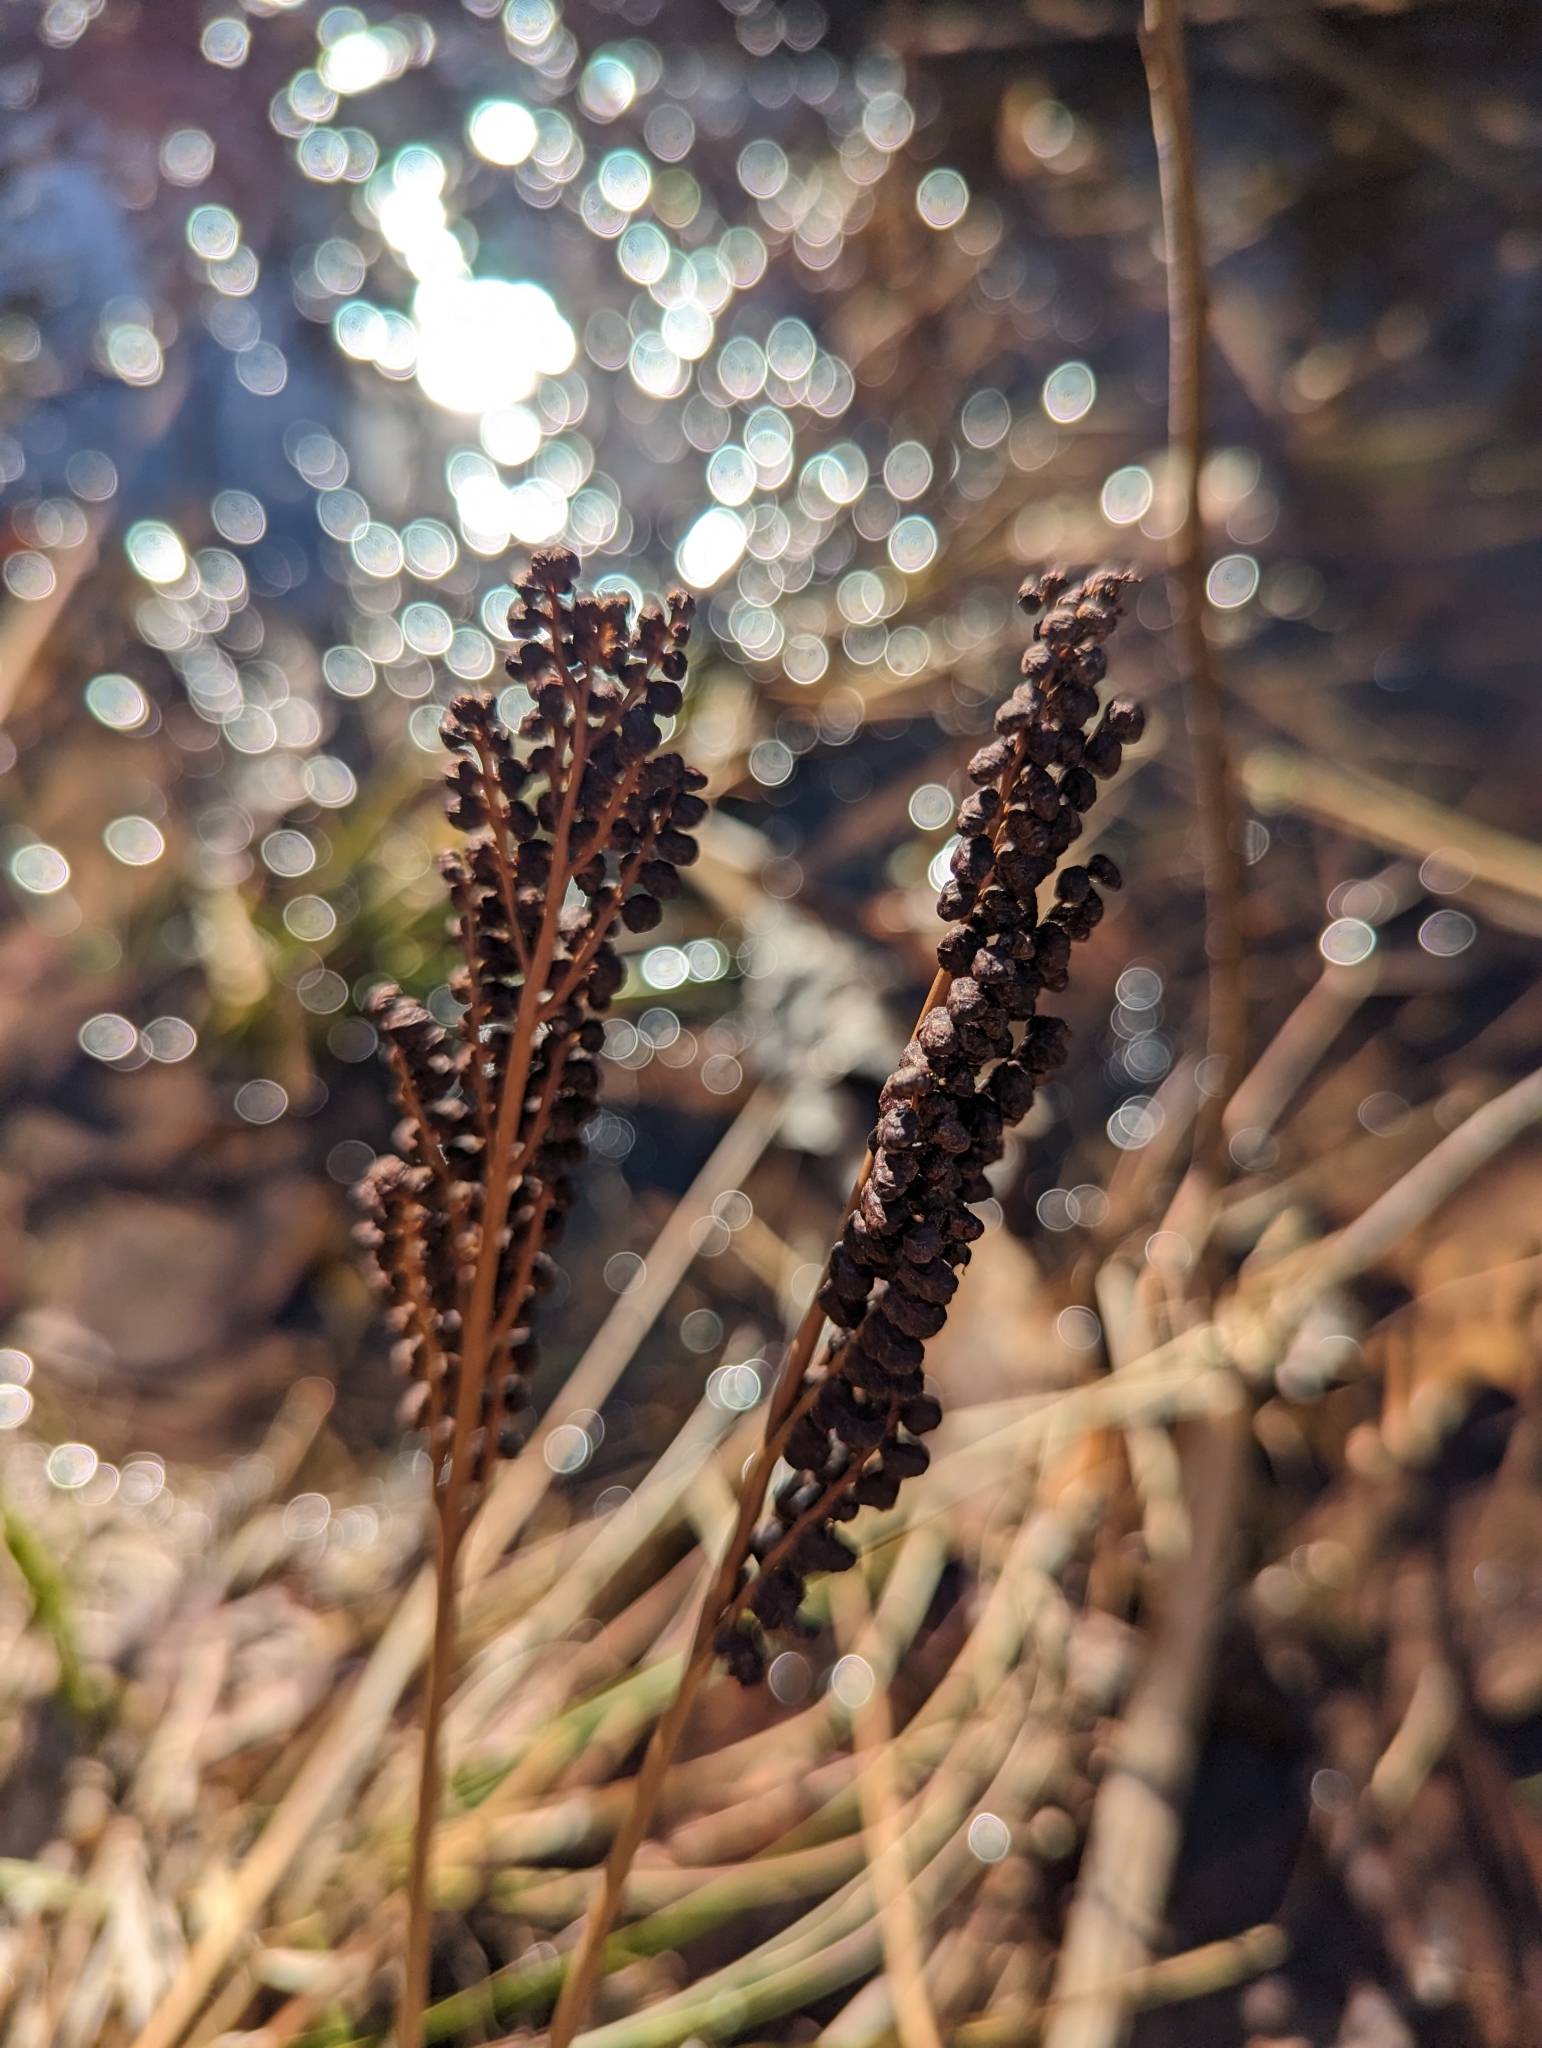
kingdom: Plantae
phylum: Tracheophyta
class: Polypodiopsida
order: Polypodiales
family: Onocleaceae
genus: Onoclea
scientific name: Onoclea sensibilis
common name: Sensitive fern
